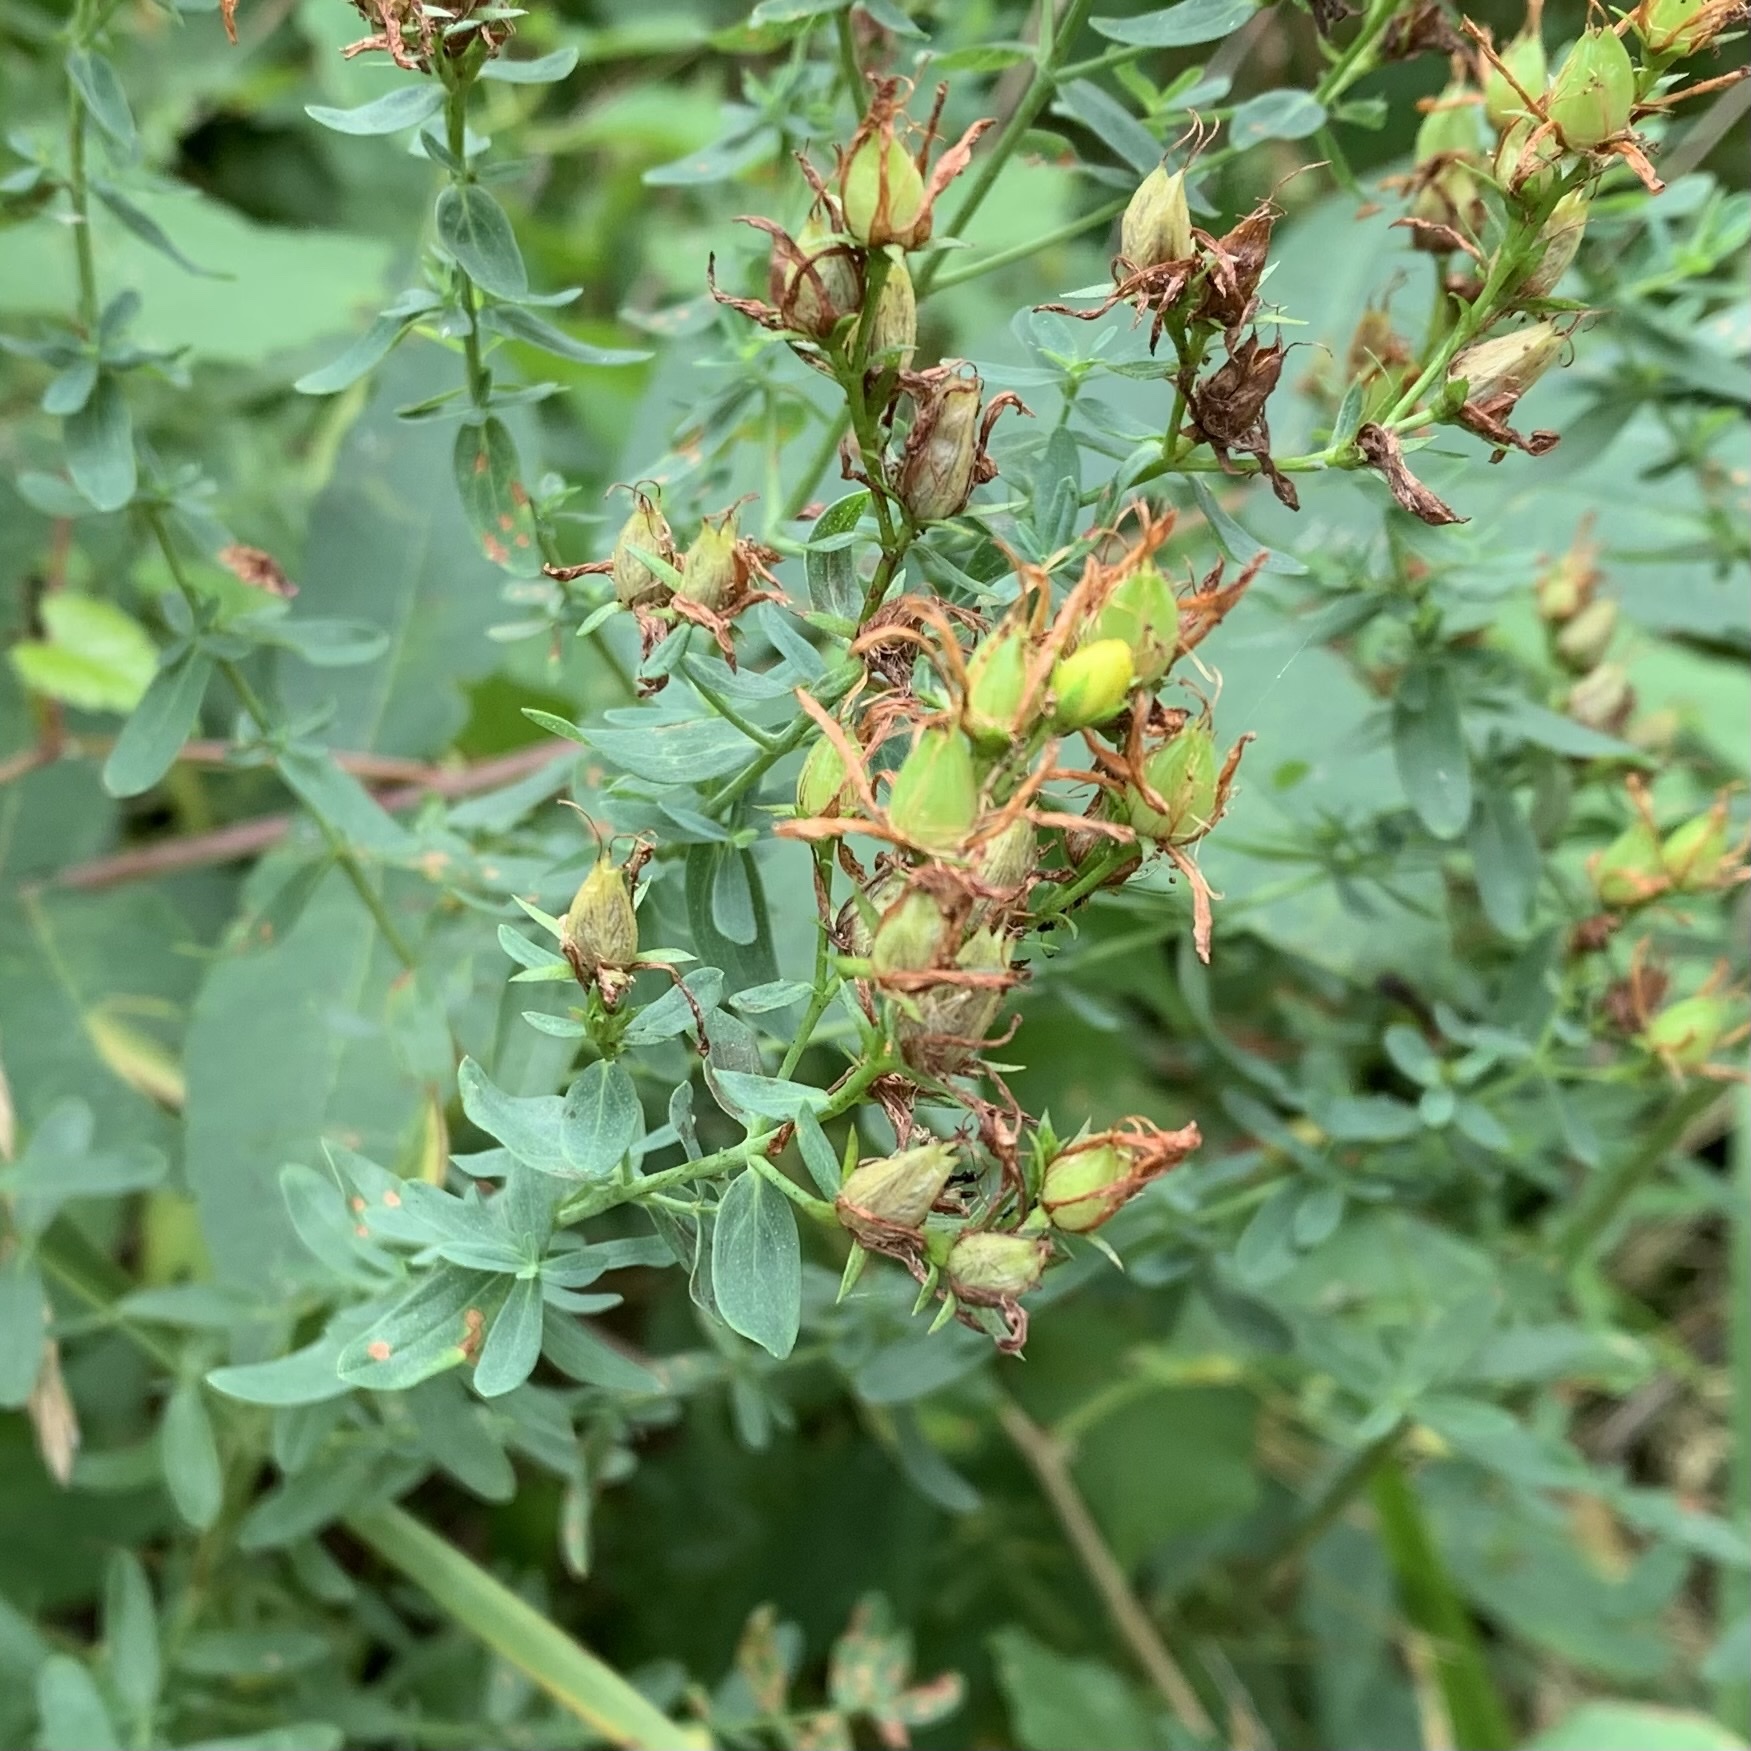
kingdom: Plantae
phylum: Tracheophyta
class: Magnoliopsida
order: Malpighiales
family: Hypericaceae
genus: Hypericum
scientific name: Hypericum perforatum
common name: Common st. johnswort
